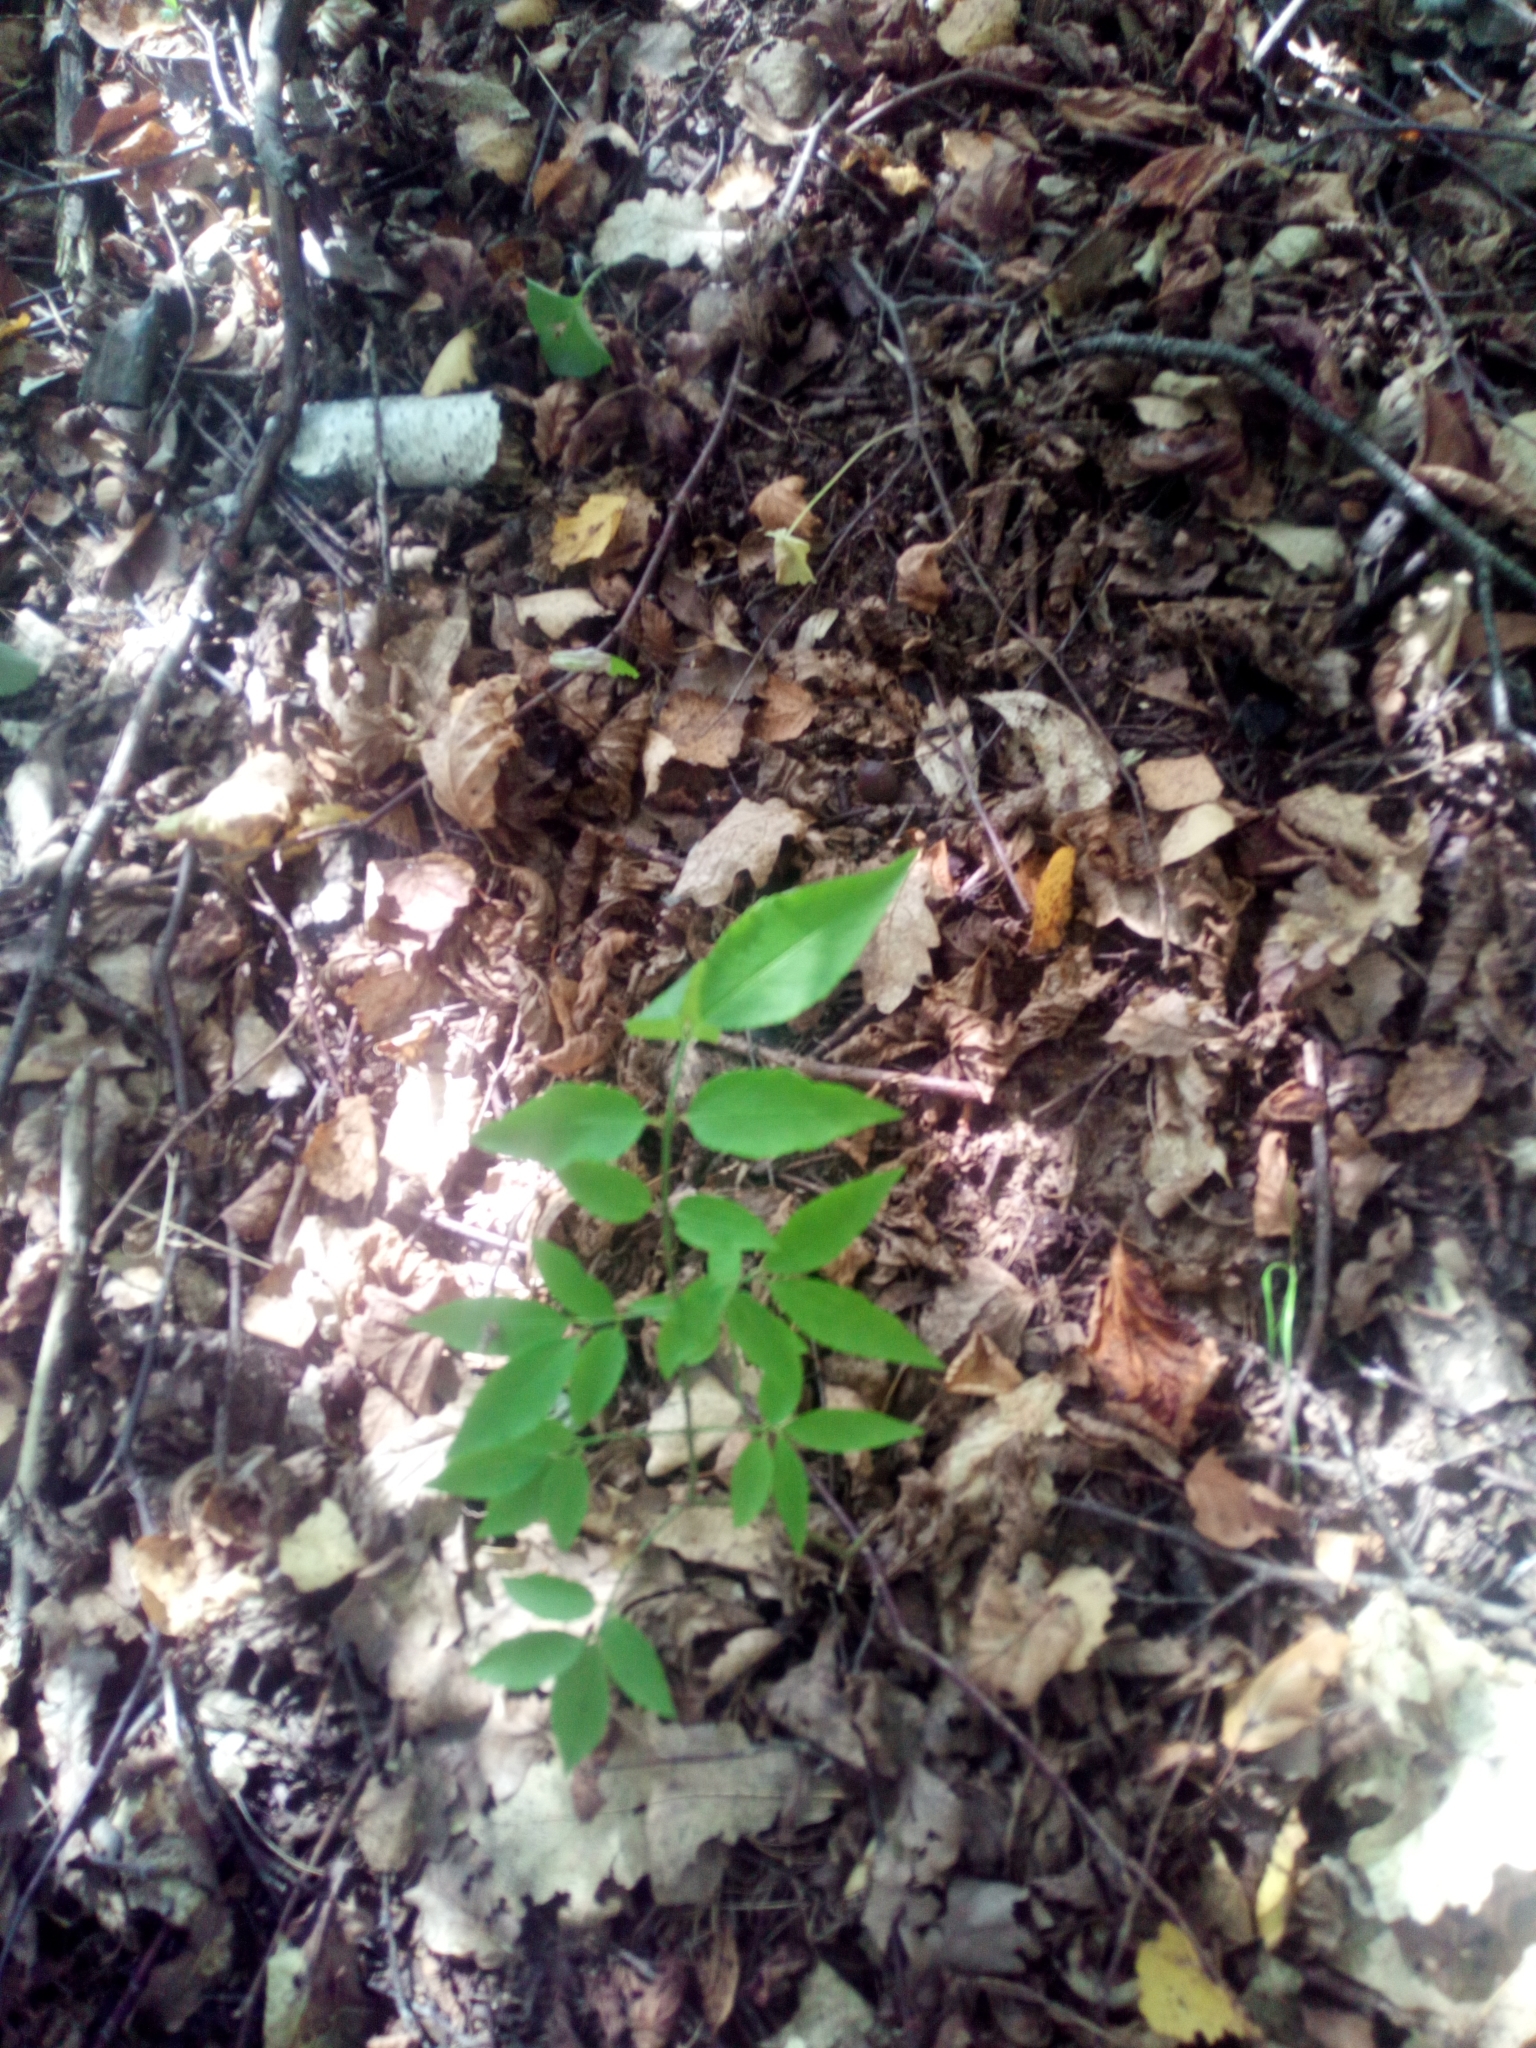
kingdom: Plantae
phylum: Tracheophyta
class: Magnoliopsida
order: Fabales
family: Fabaceae
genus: Lathyrus
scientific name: Lathyrus vernus
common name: Spring pea
